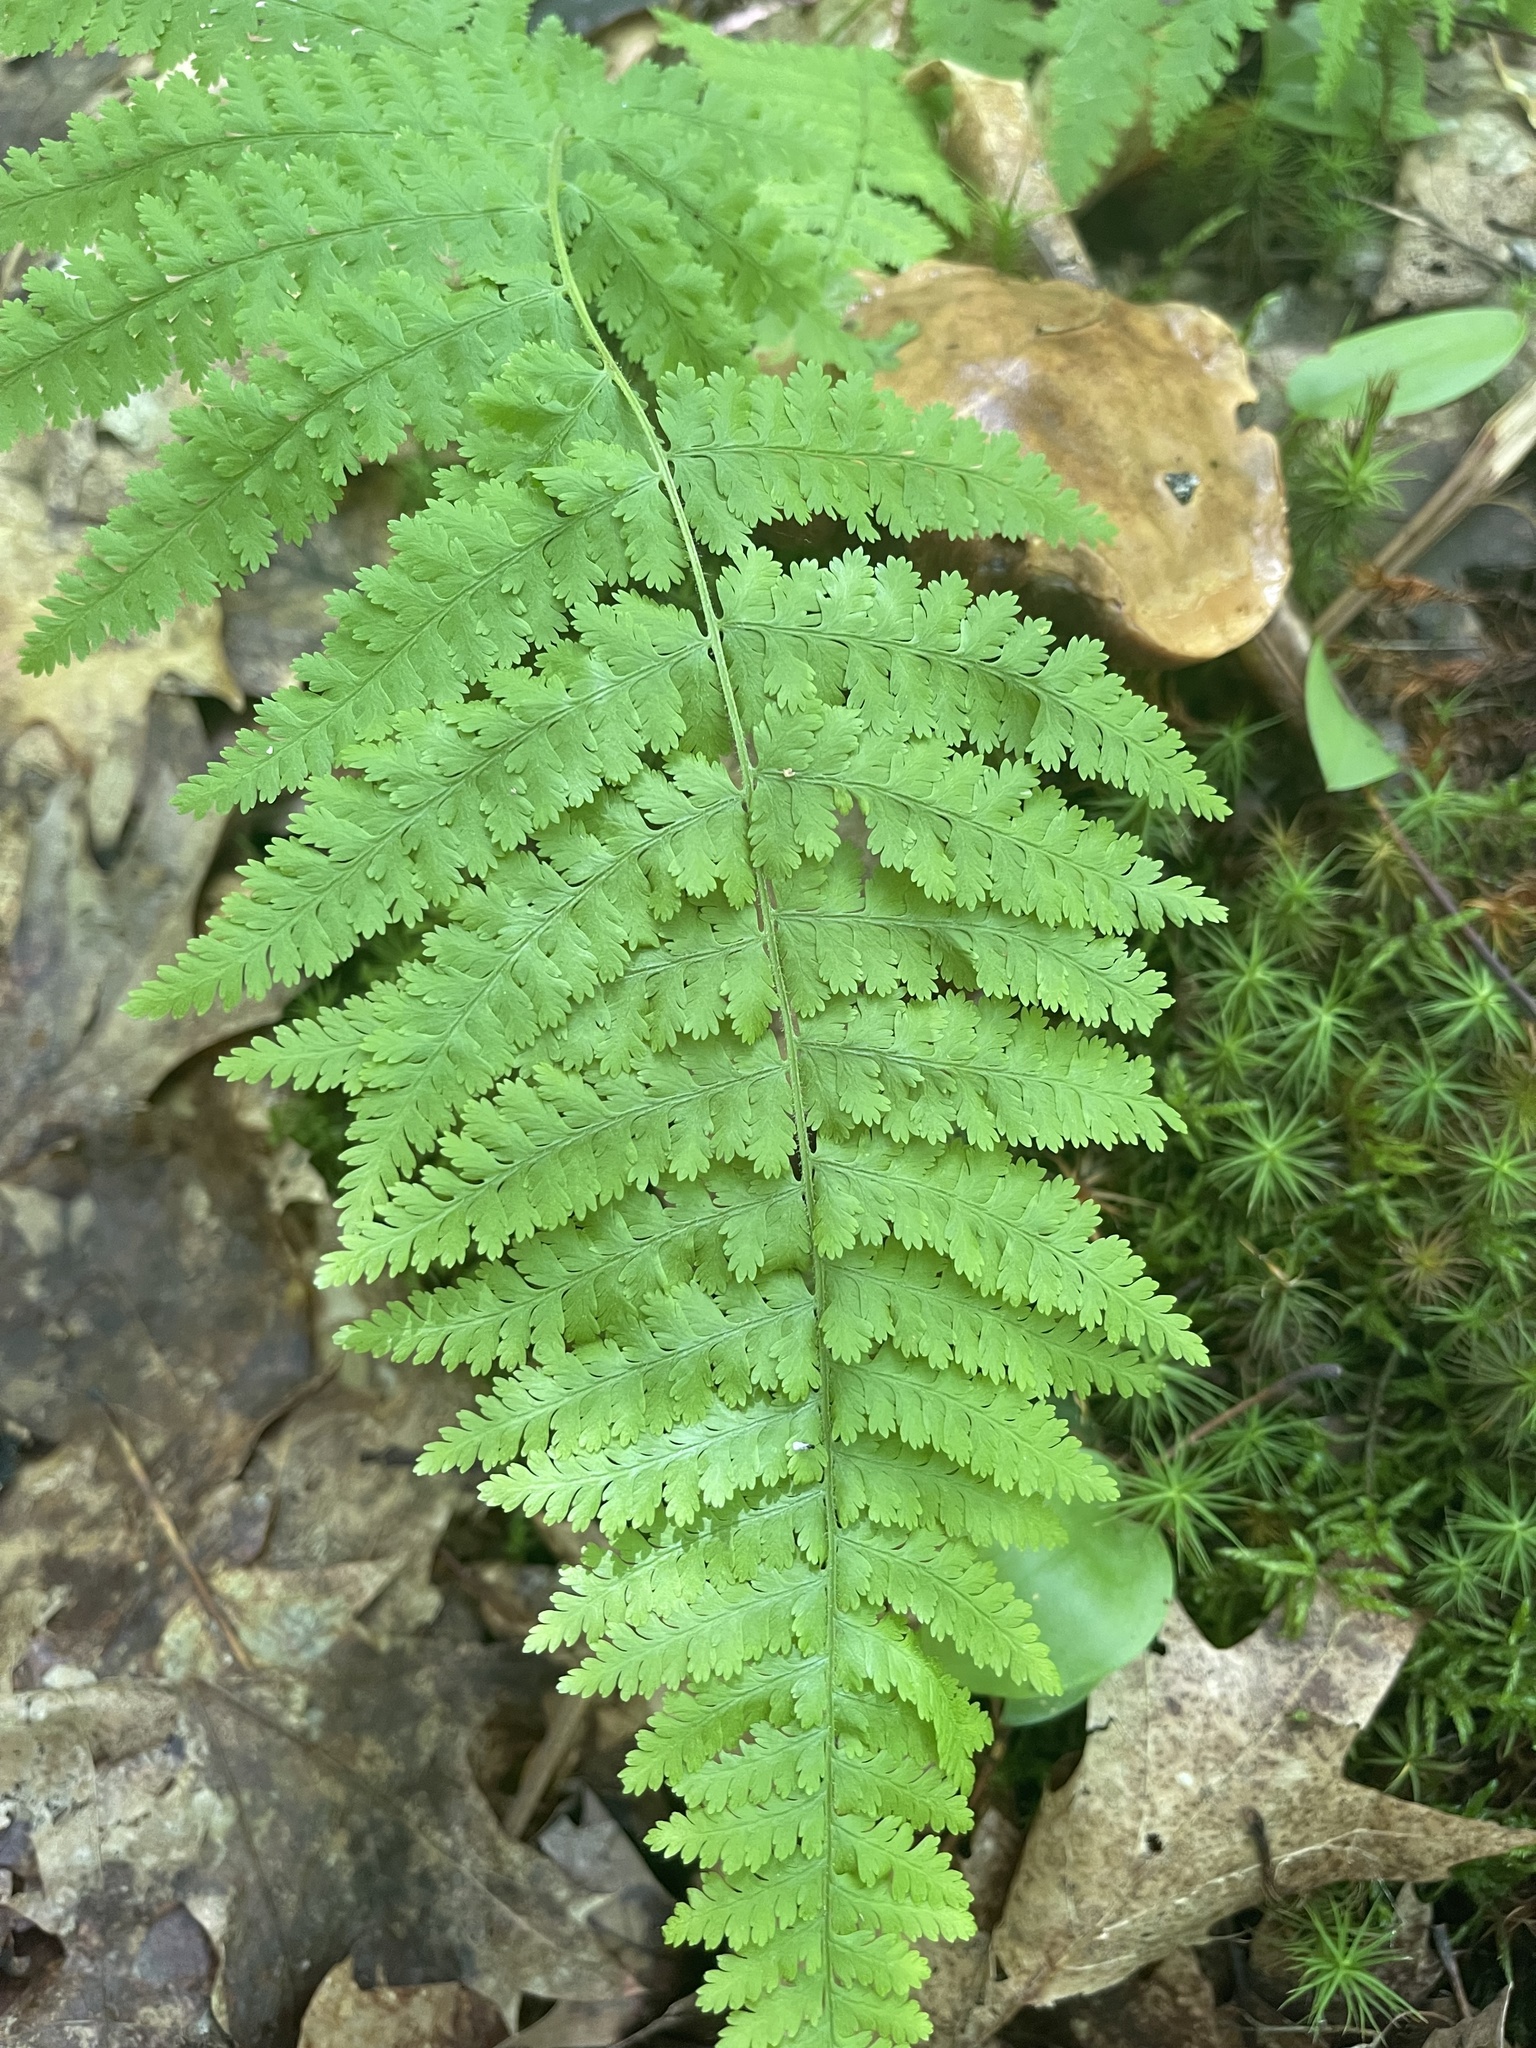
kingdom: Plantae
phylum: Tracheophyta
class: Polypodiopsida
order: Polypodiales
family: Dennstaedtiaceae
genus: Sitobolium
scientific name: Sitobolium punctilobum
